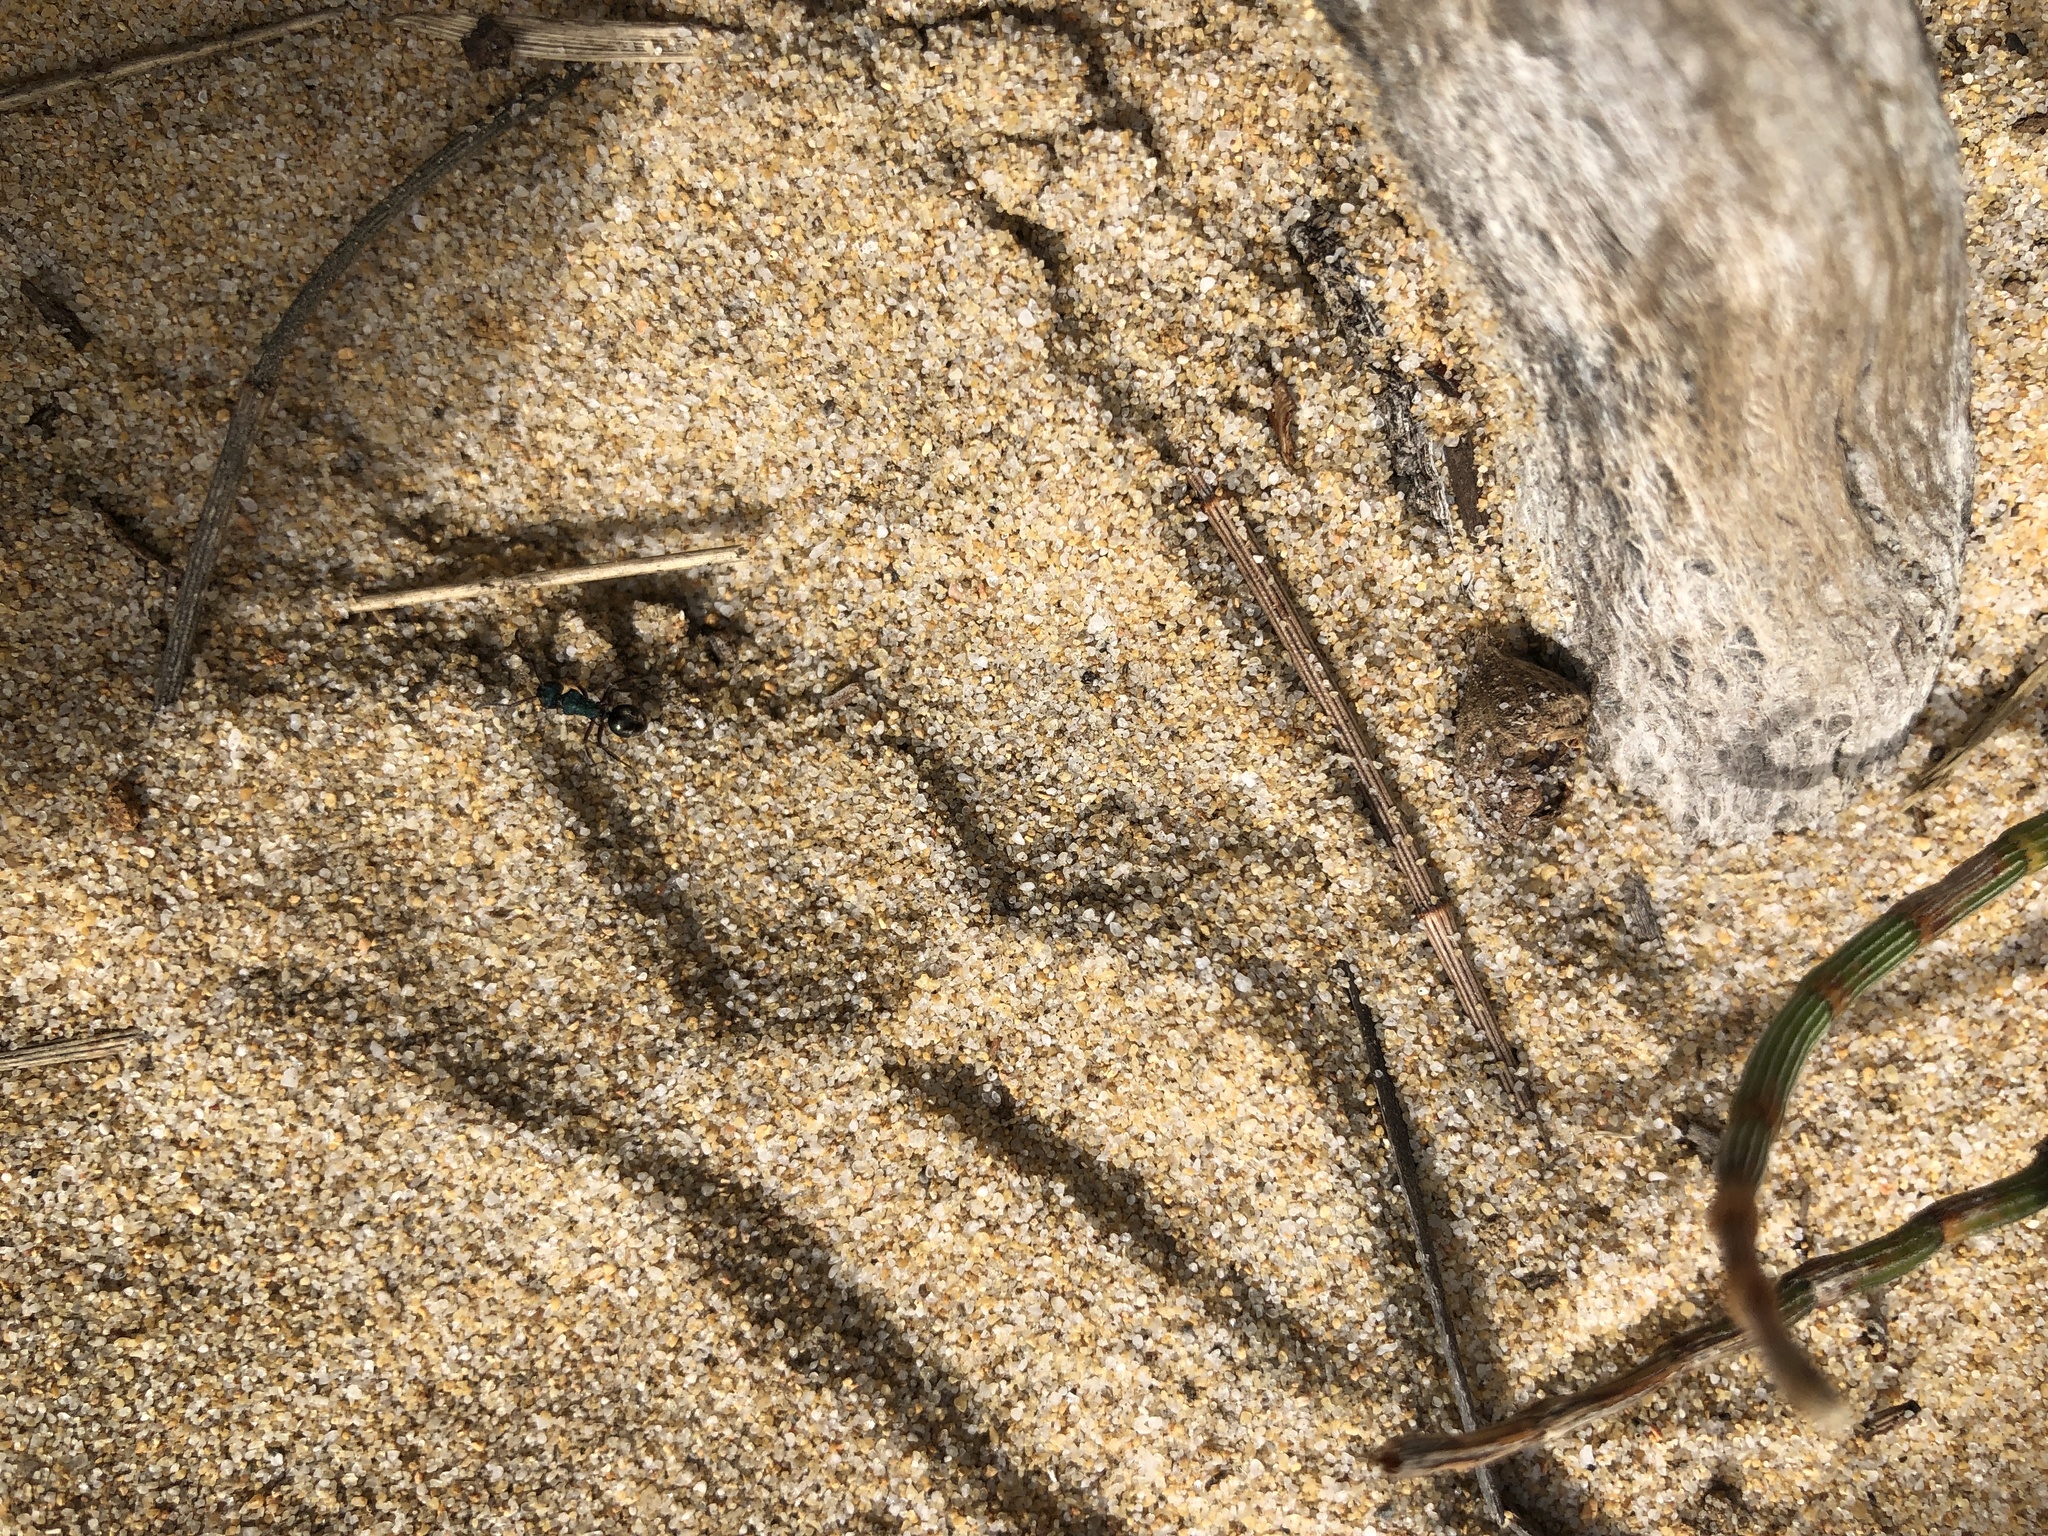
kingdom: Animalia
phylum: Arthropoda
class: Insecta
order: Hymenoptera
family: Formicidae
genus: Polyrhachis
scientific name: Polyrhachis hookeri
